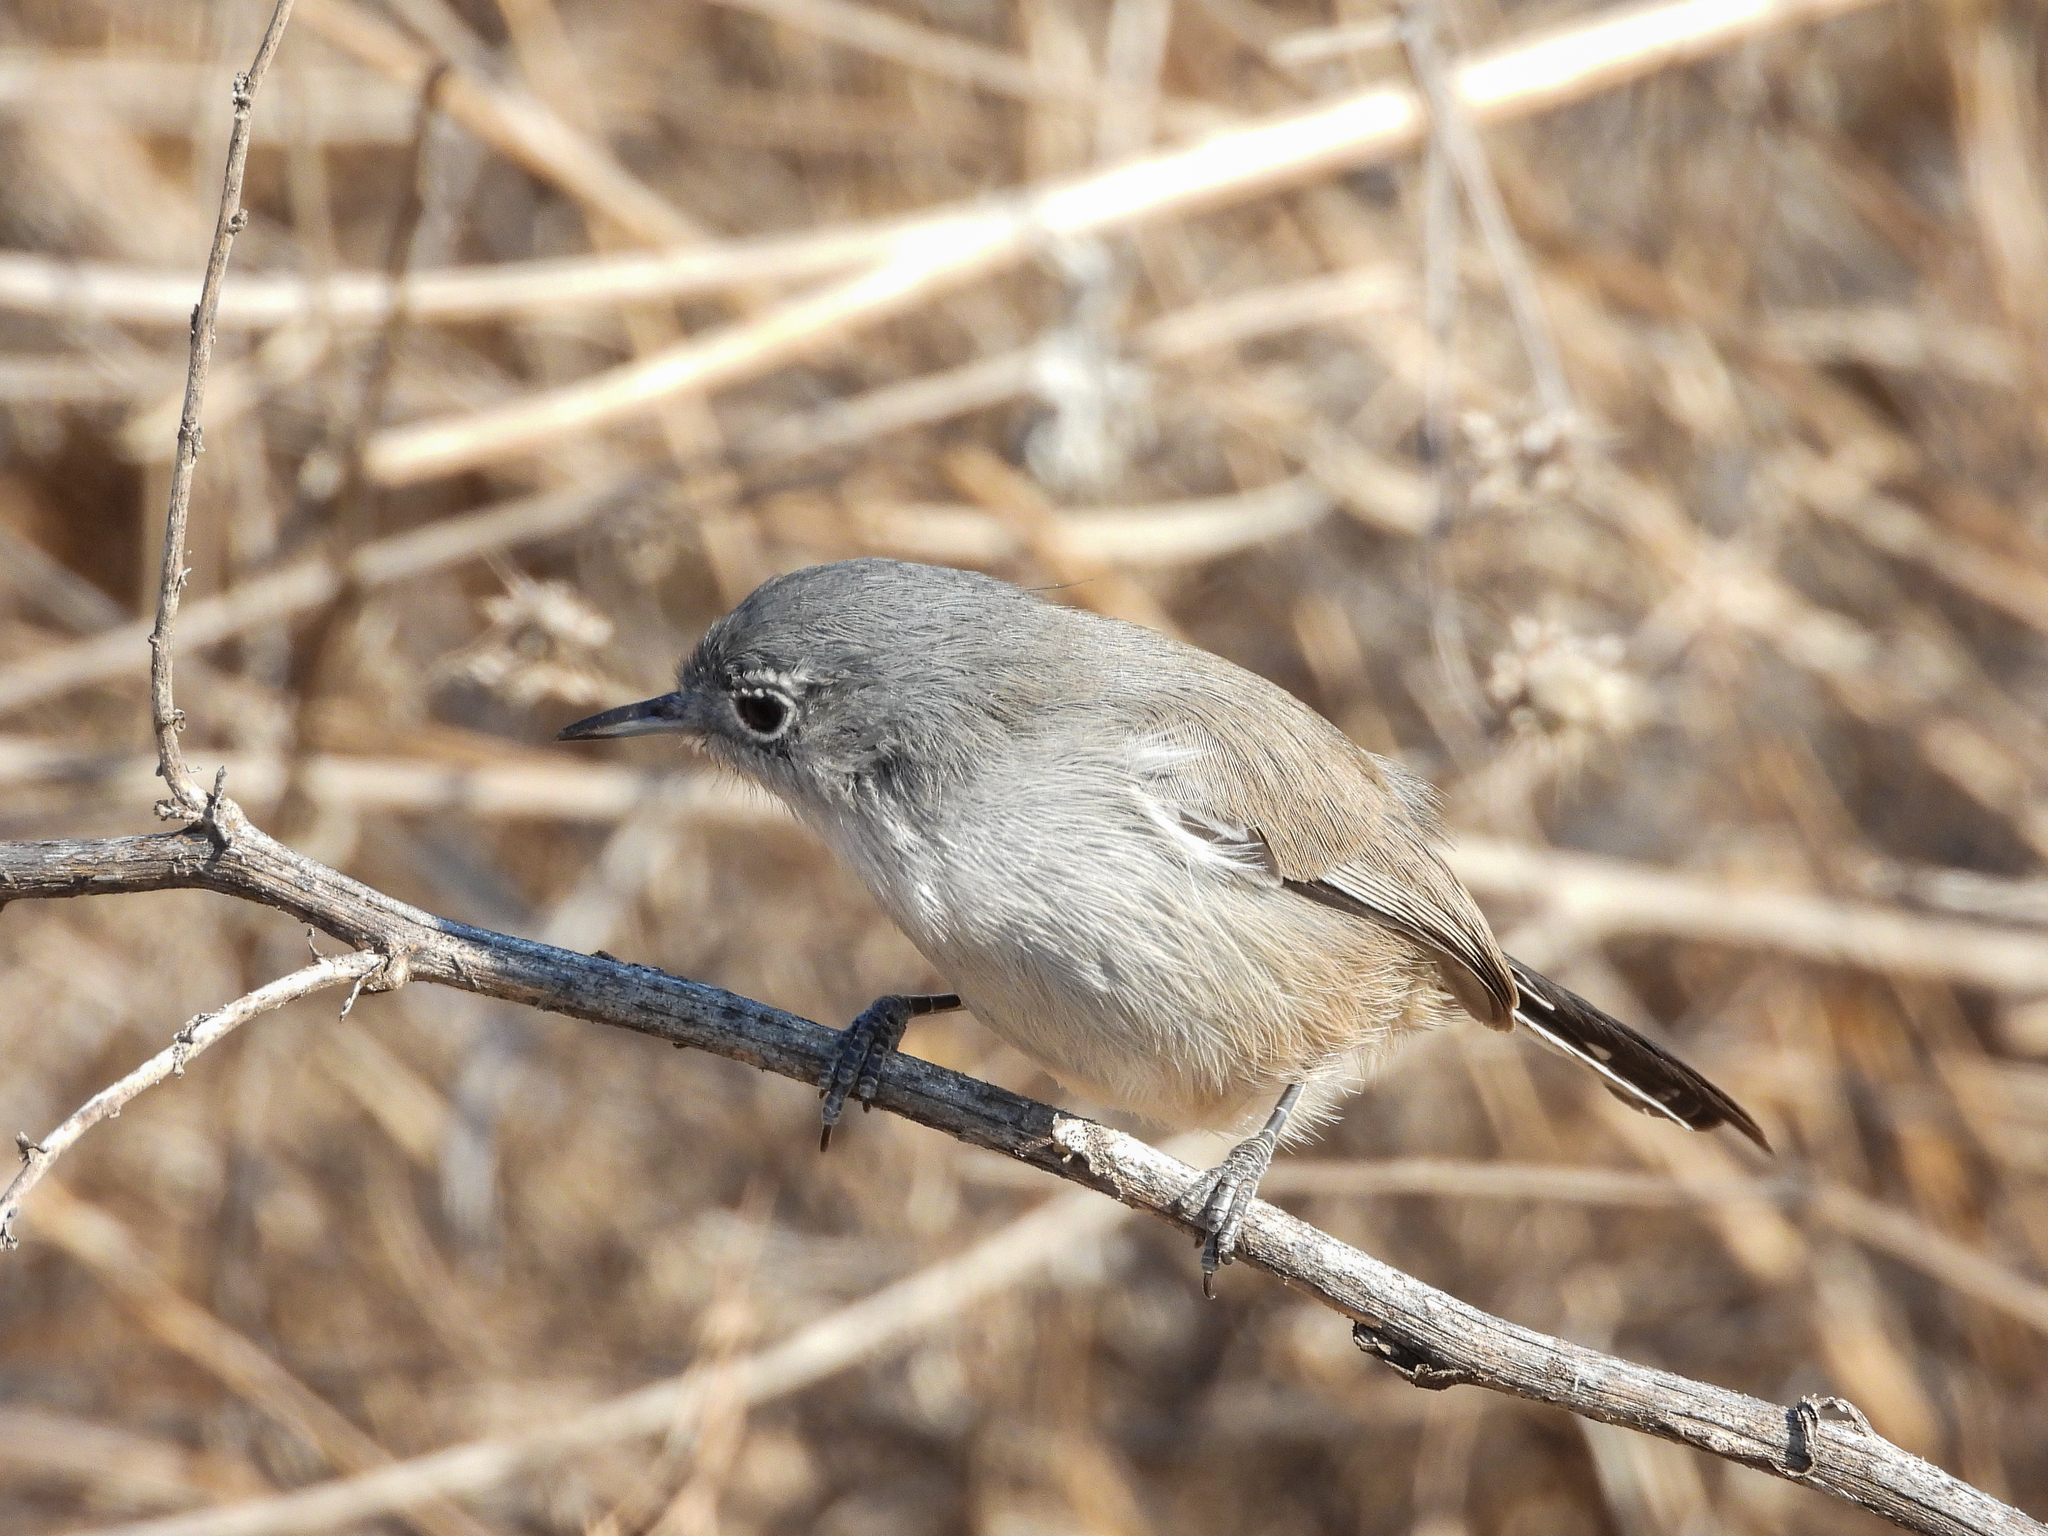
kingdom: Animalia
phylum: Chordata
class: Aves
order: Passeriformes
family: Polioptilidae
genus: Polioptila
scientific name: Polioptila californica
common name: California gnatcatcher
